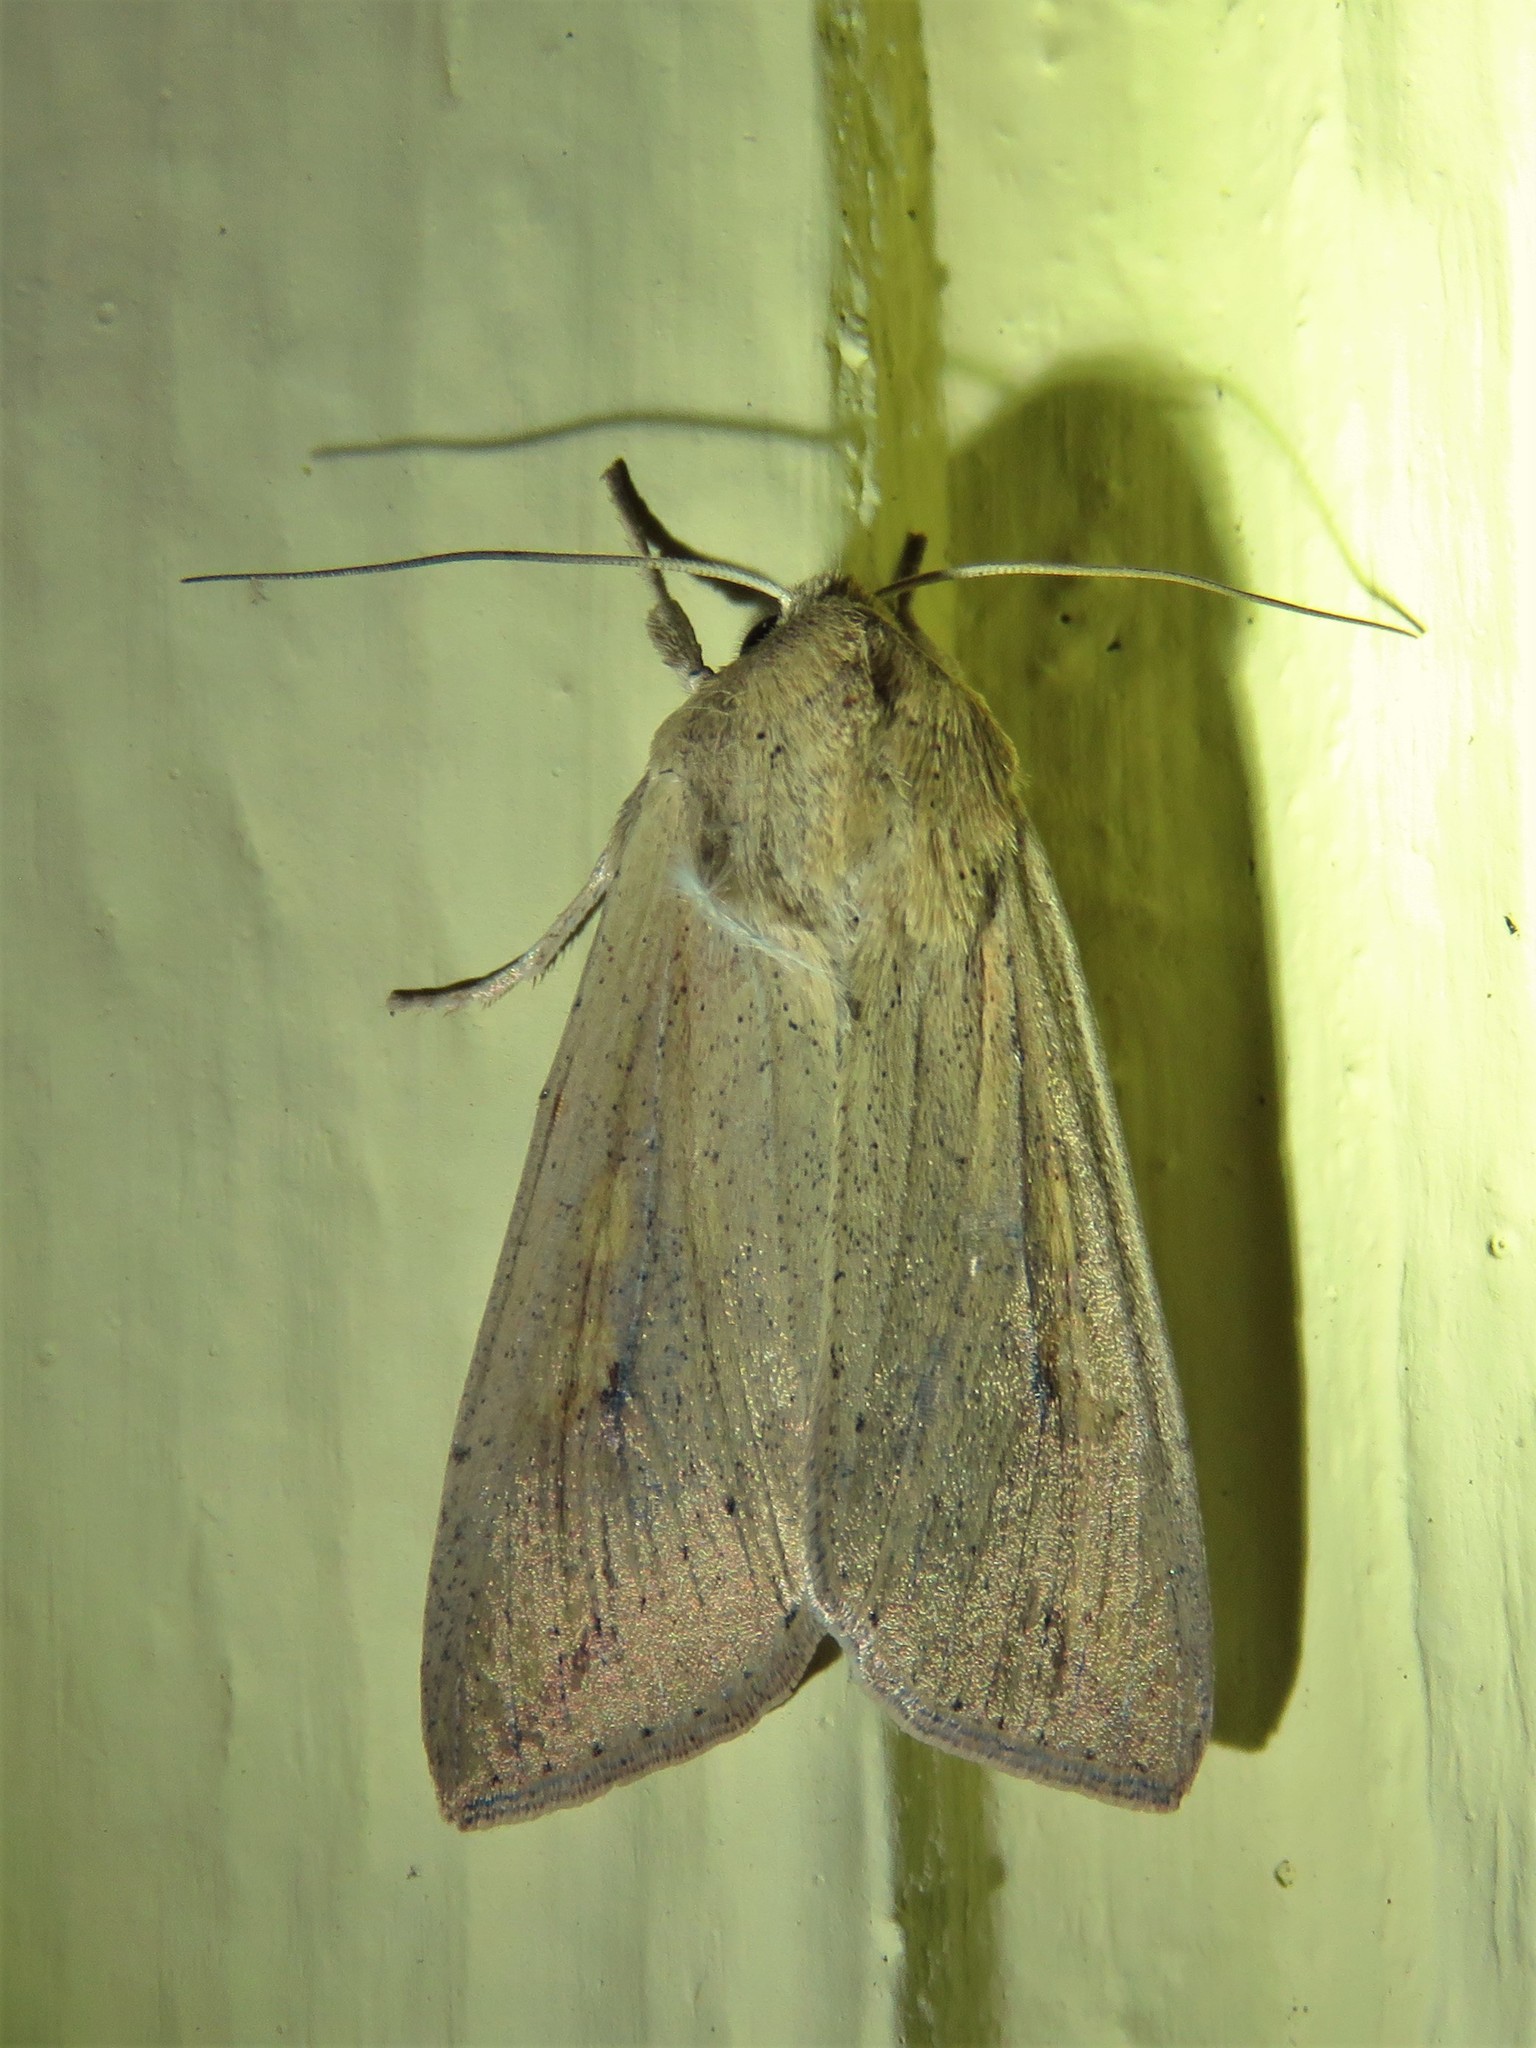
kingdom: Animalia
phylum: Arthropoda
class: Insecta
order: Lepidoptera
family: Noctuidae
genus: Mythimna
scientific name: Mythimna unipuncta
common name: White-speck
